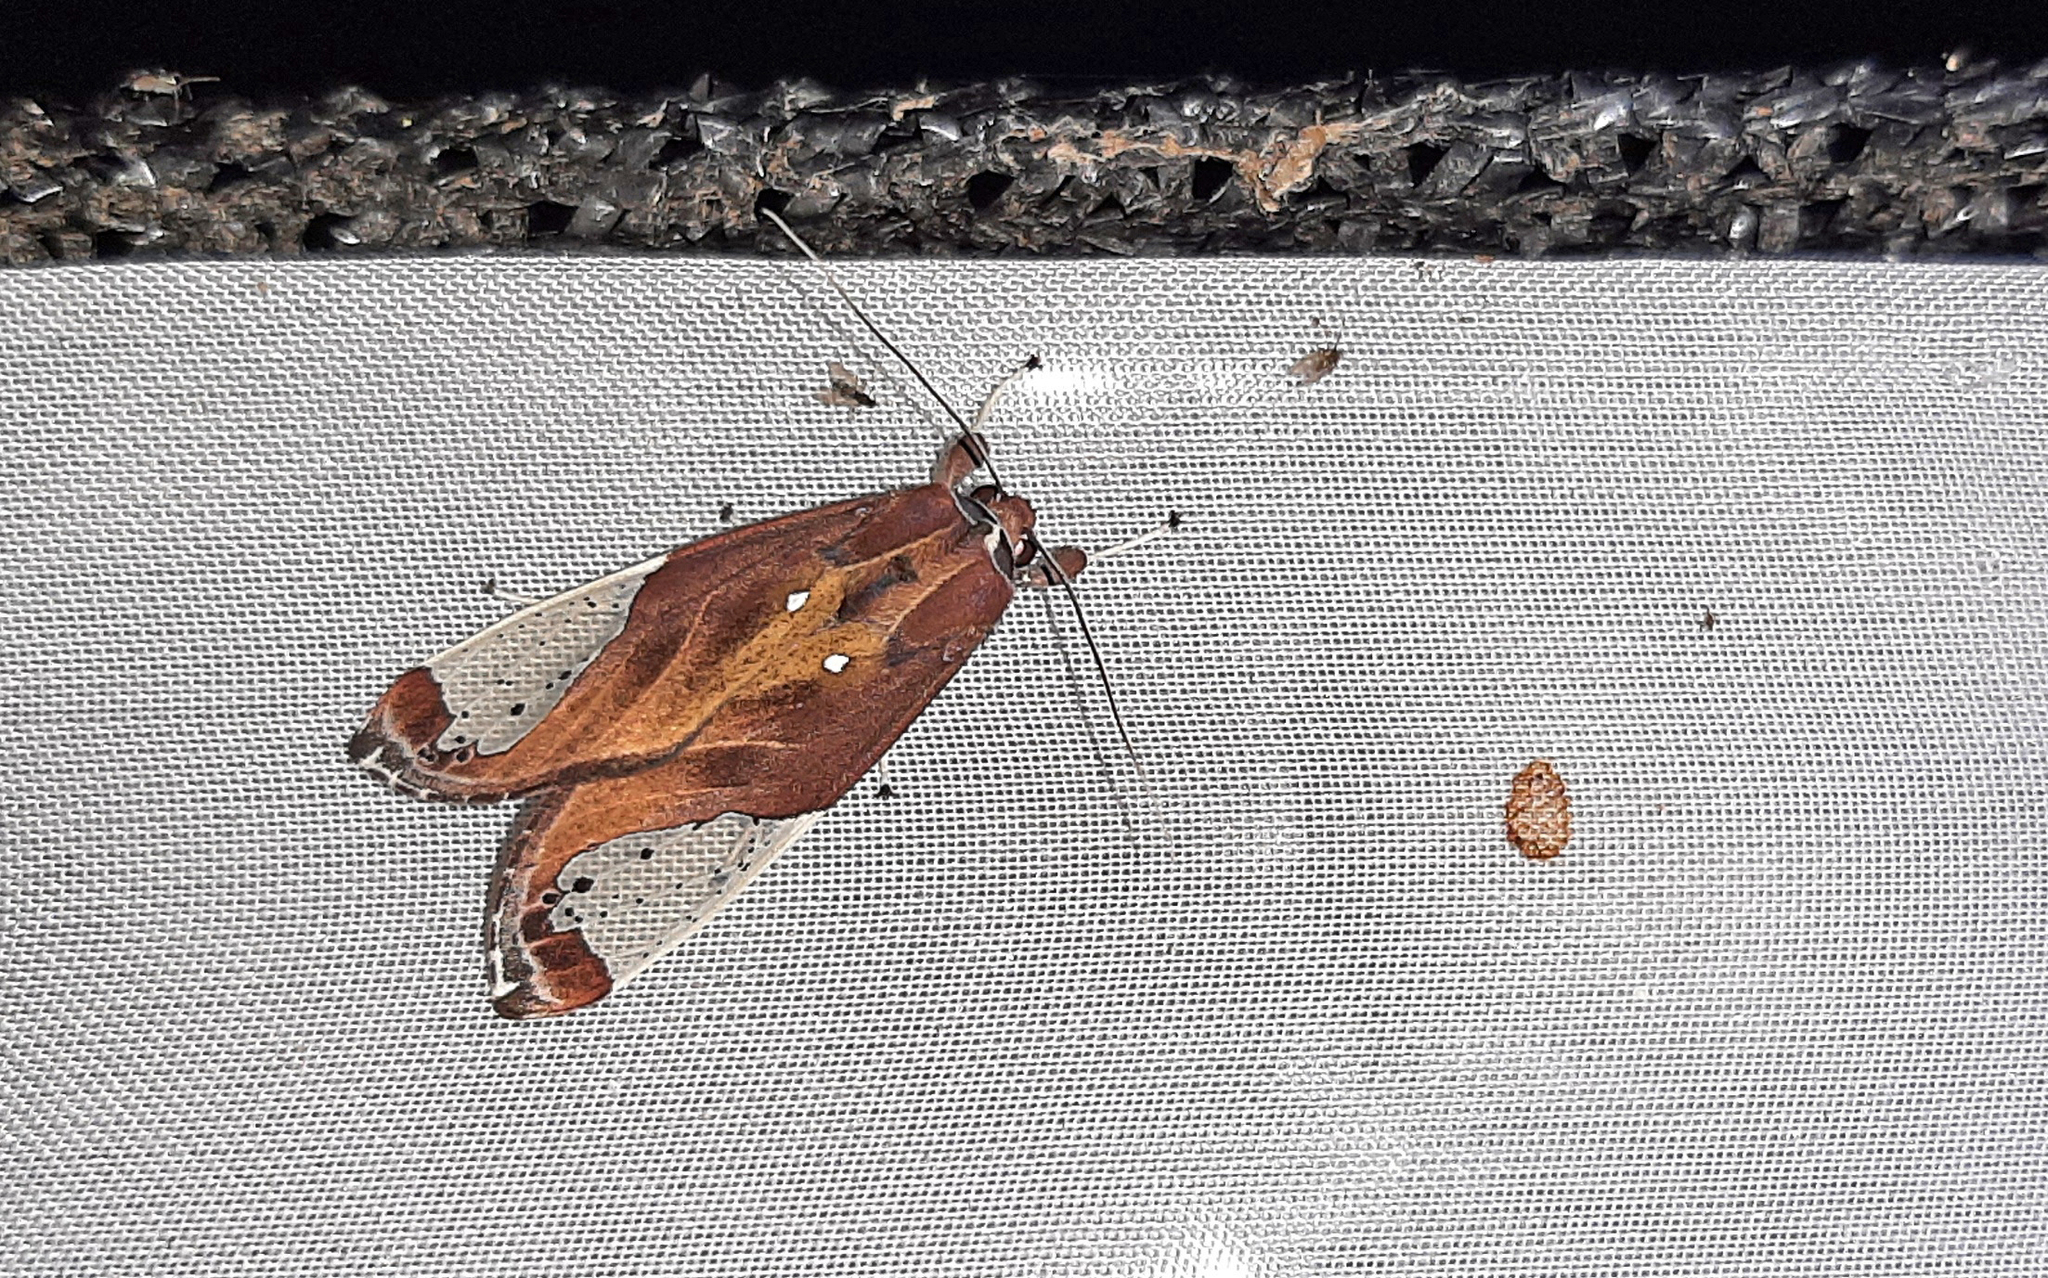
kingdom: Animalia
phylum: Arthropoda
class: Insecta
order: Lepidoptera
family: Erebidae
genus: Bertholdia
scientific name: Bertholdia albipuncta
